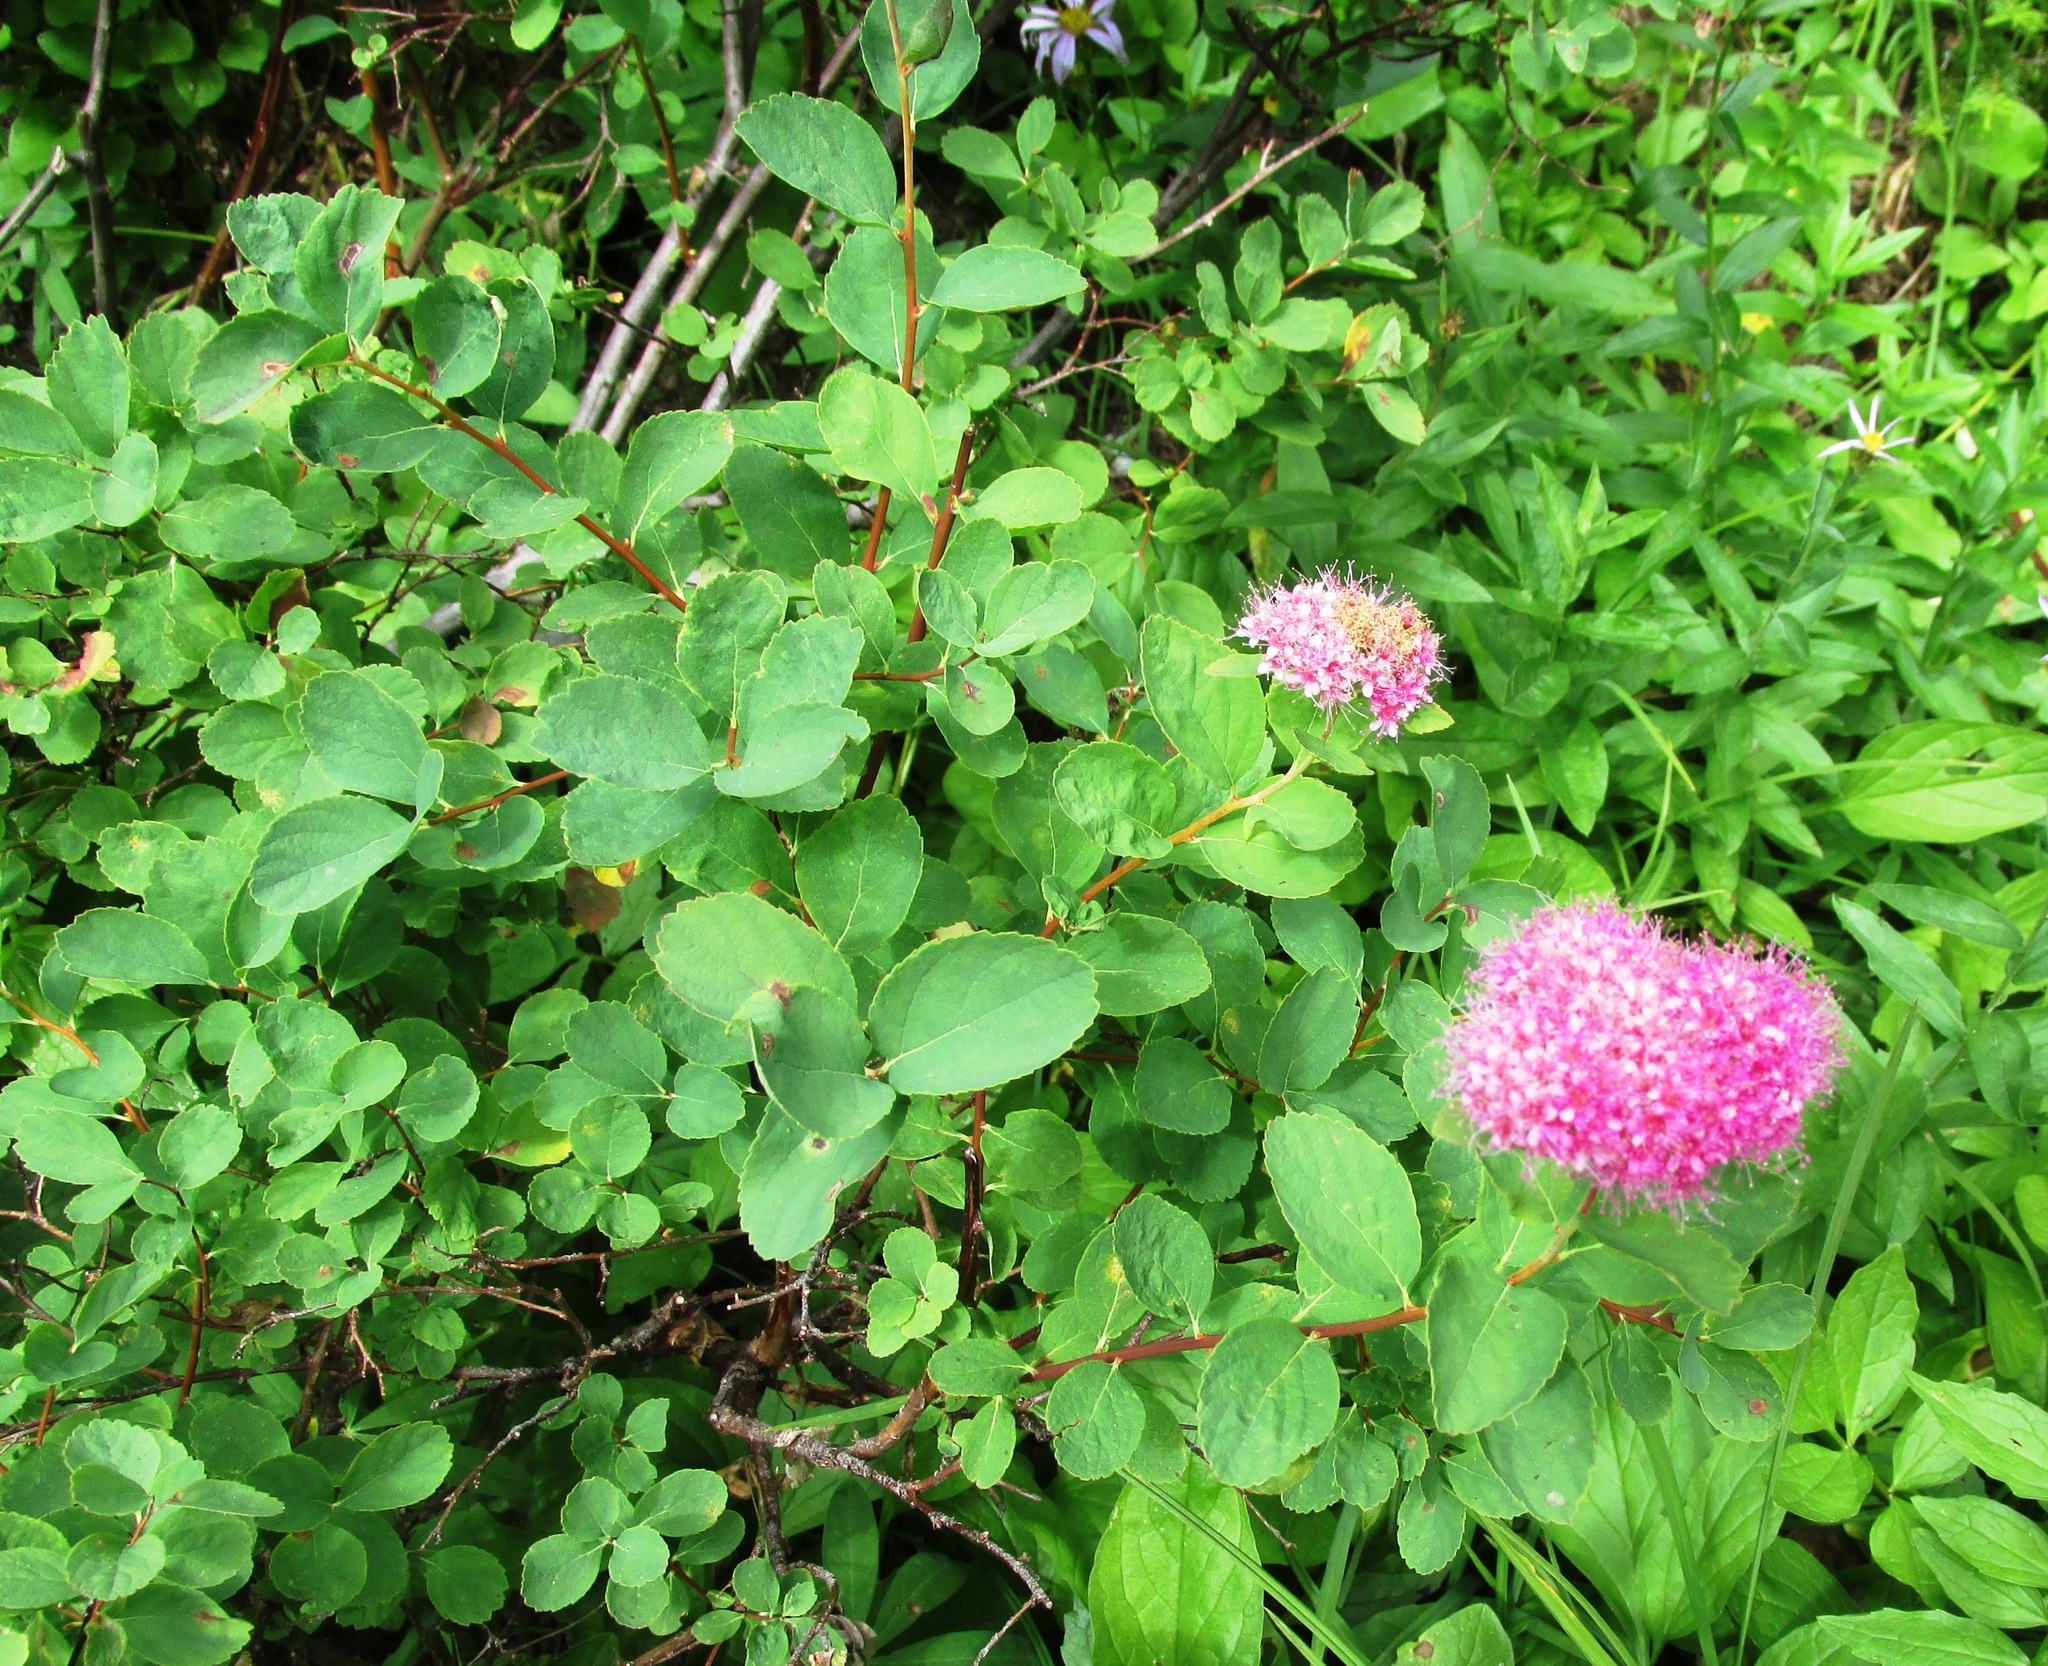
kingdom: Plantae
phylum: Tracheophyta
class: Magnoliopsida
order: Rosales
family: Rosaceae
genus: Spiraea
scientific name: Spiraea splendens
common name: Subalpine meadowsweet
